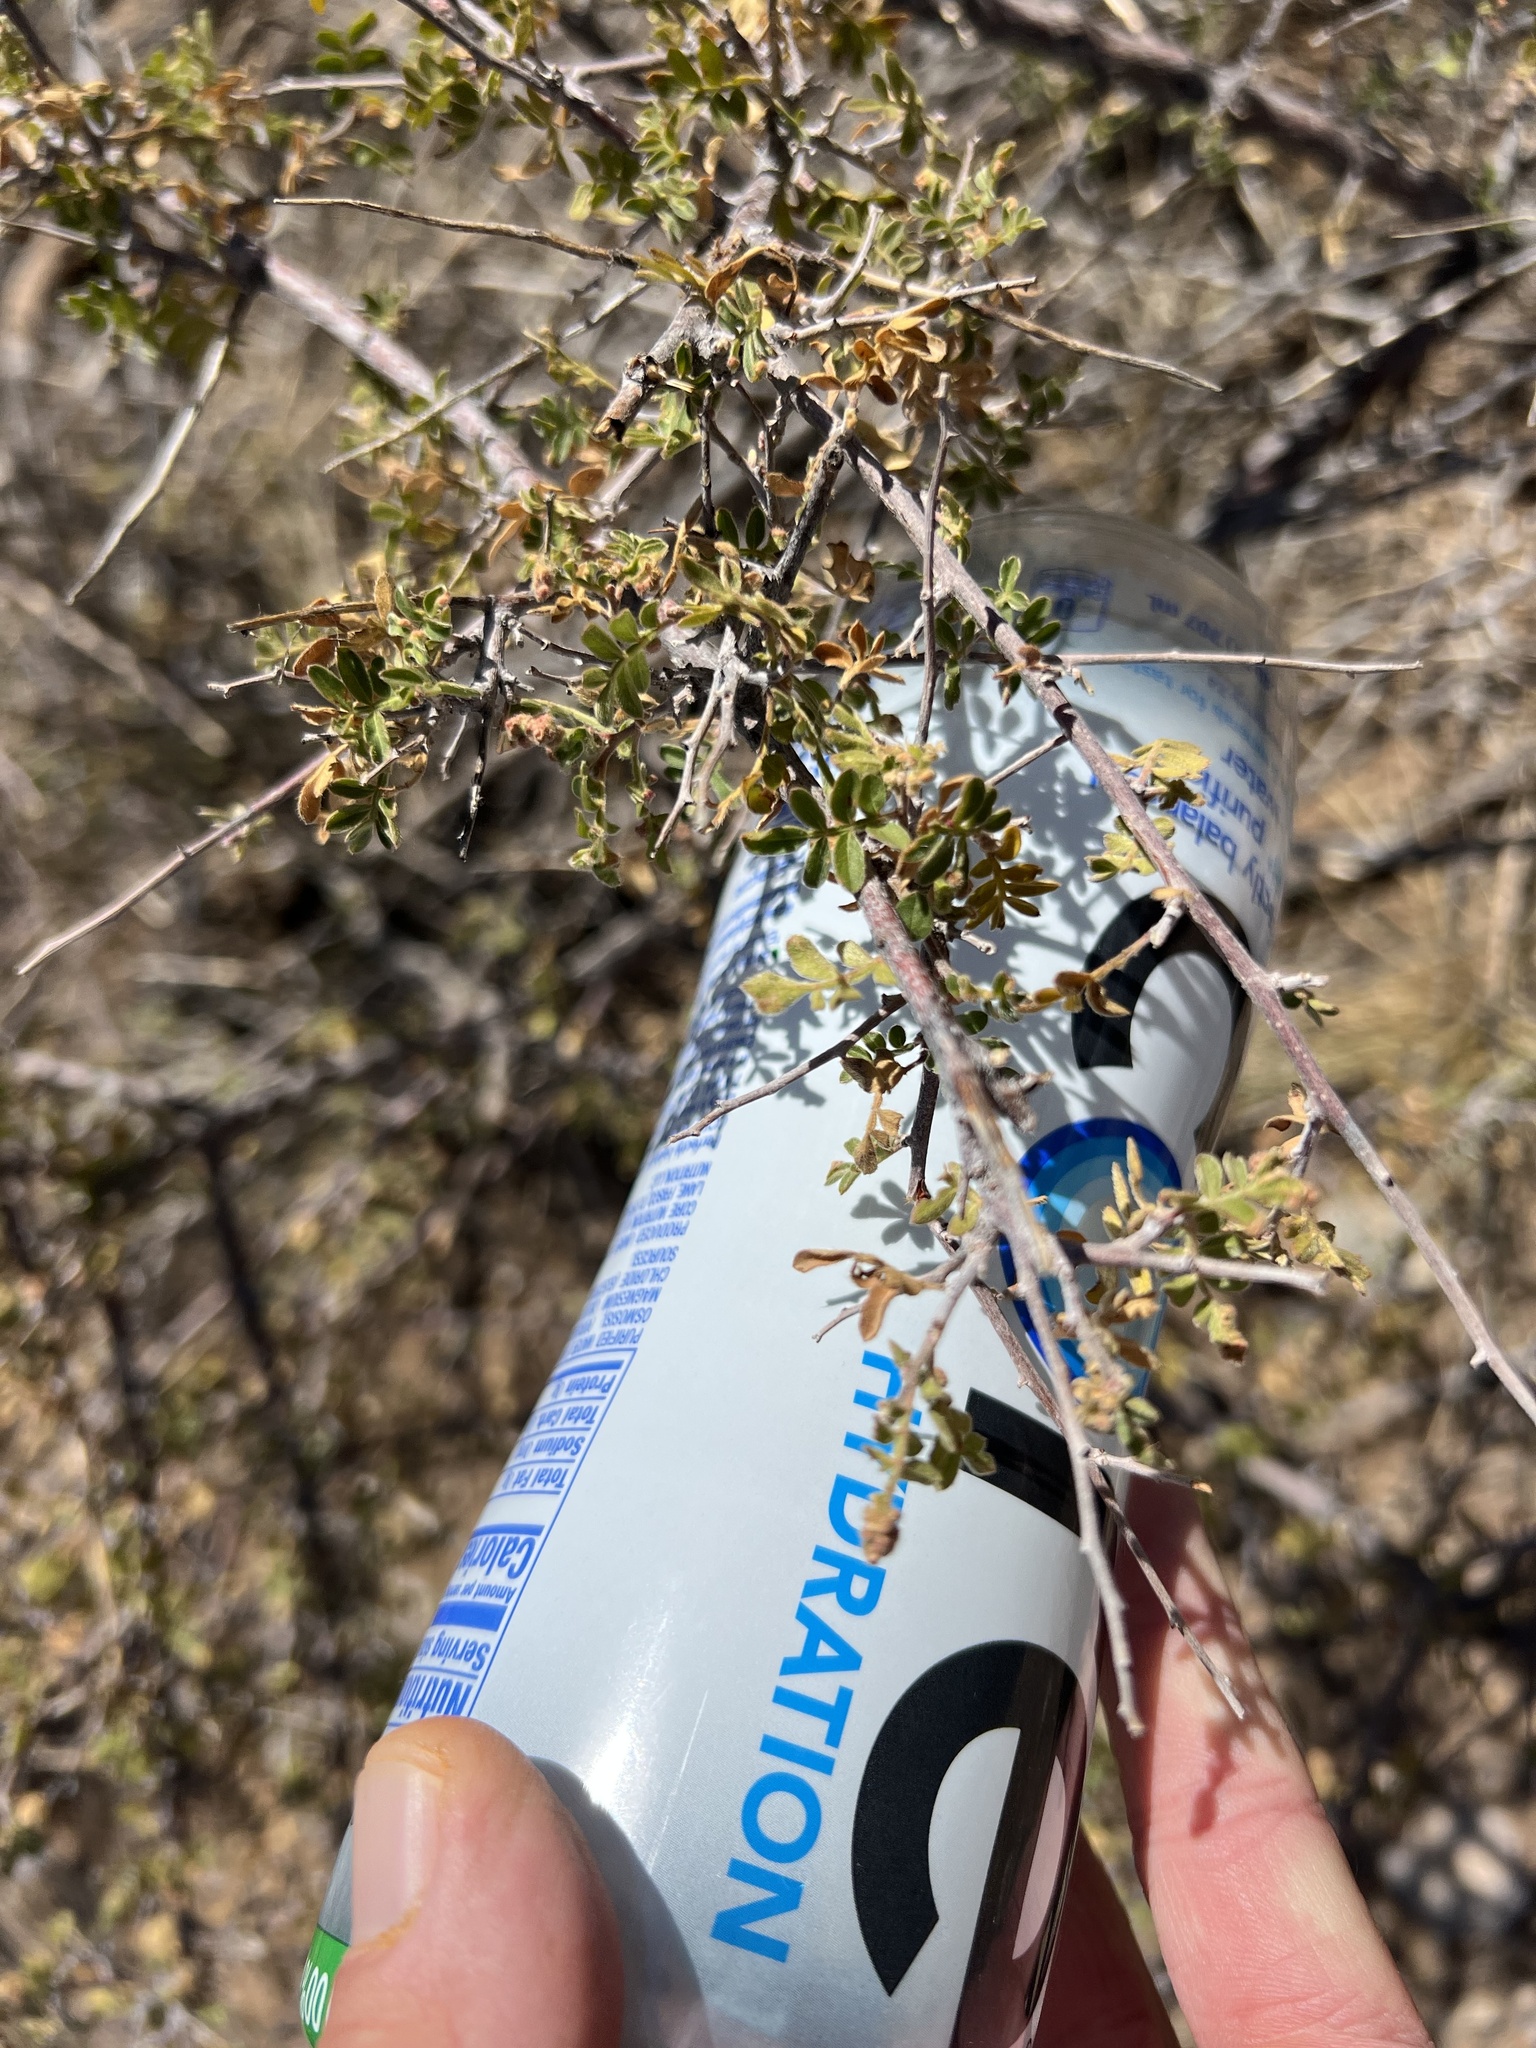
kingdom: Plantae
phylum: Tracheophyta
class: Magnoliopsida
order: Sapindales
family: Anacardiaceae
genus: Rhus
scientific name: Rhus microphylla
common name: Desert sumac
